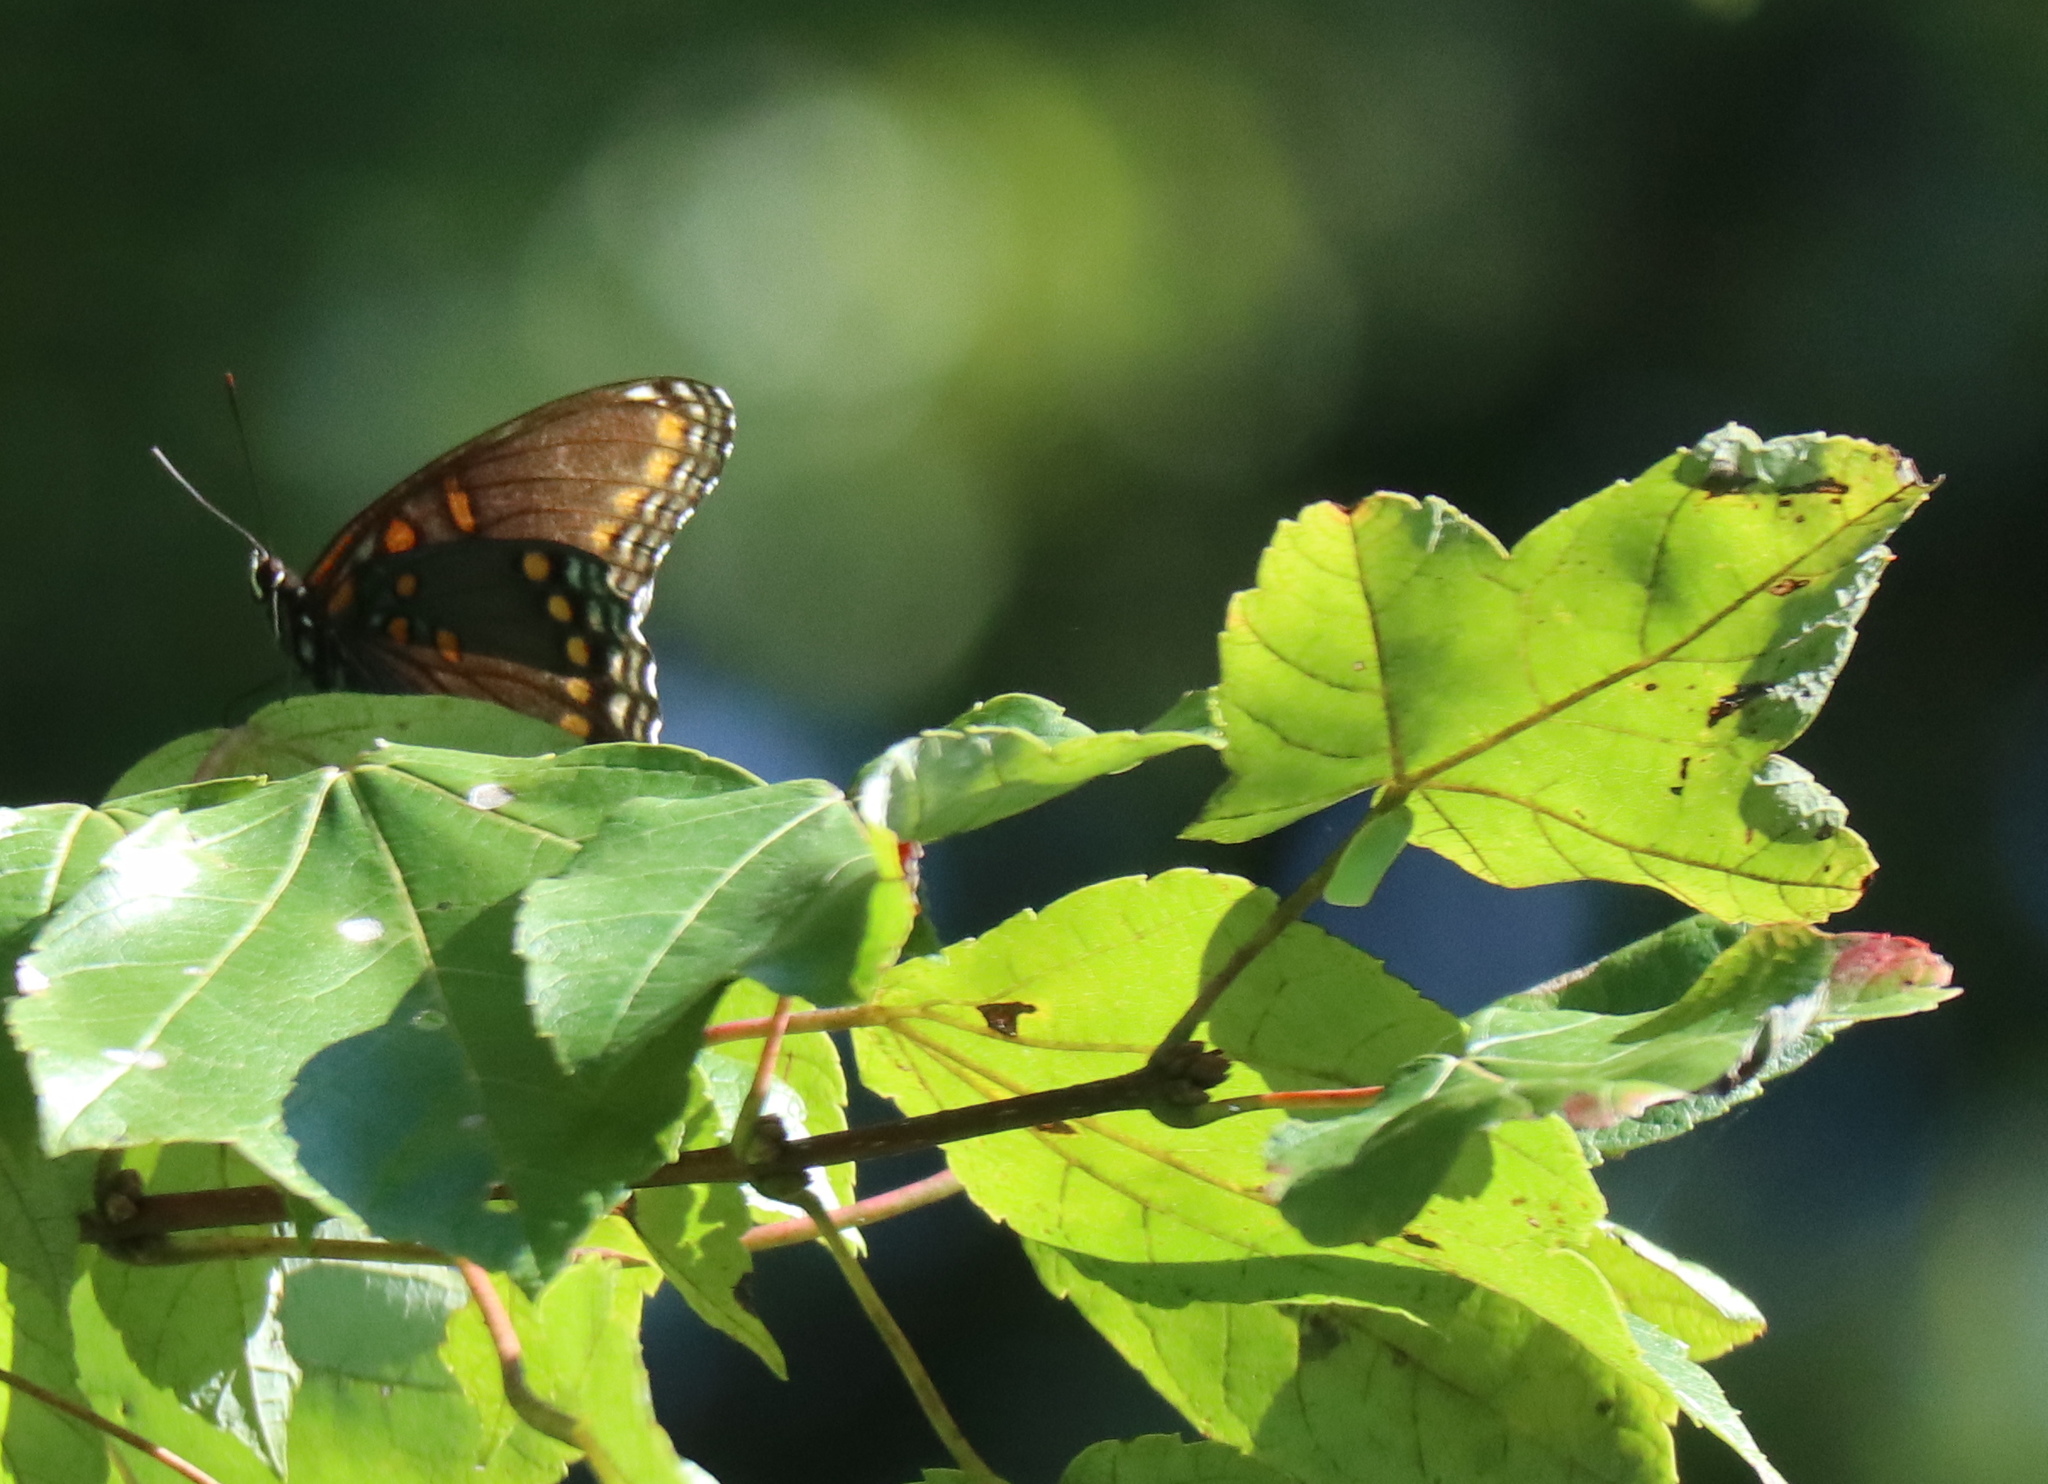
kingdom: Animalia
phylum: Arthropoda
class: Insecta
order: Lepidoptera
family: Nymphalidae
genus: Limenitis
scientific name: Limenitis astyanax
